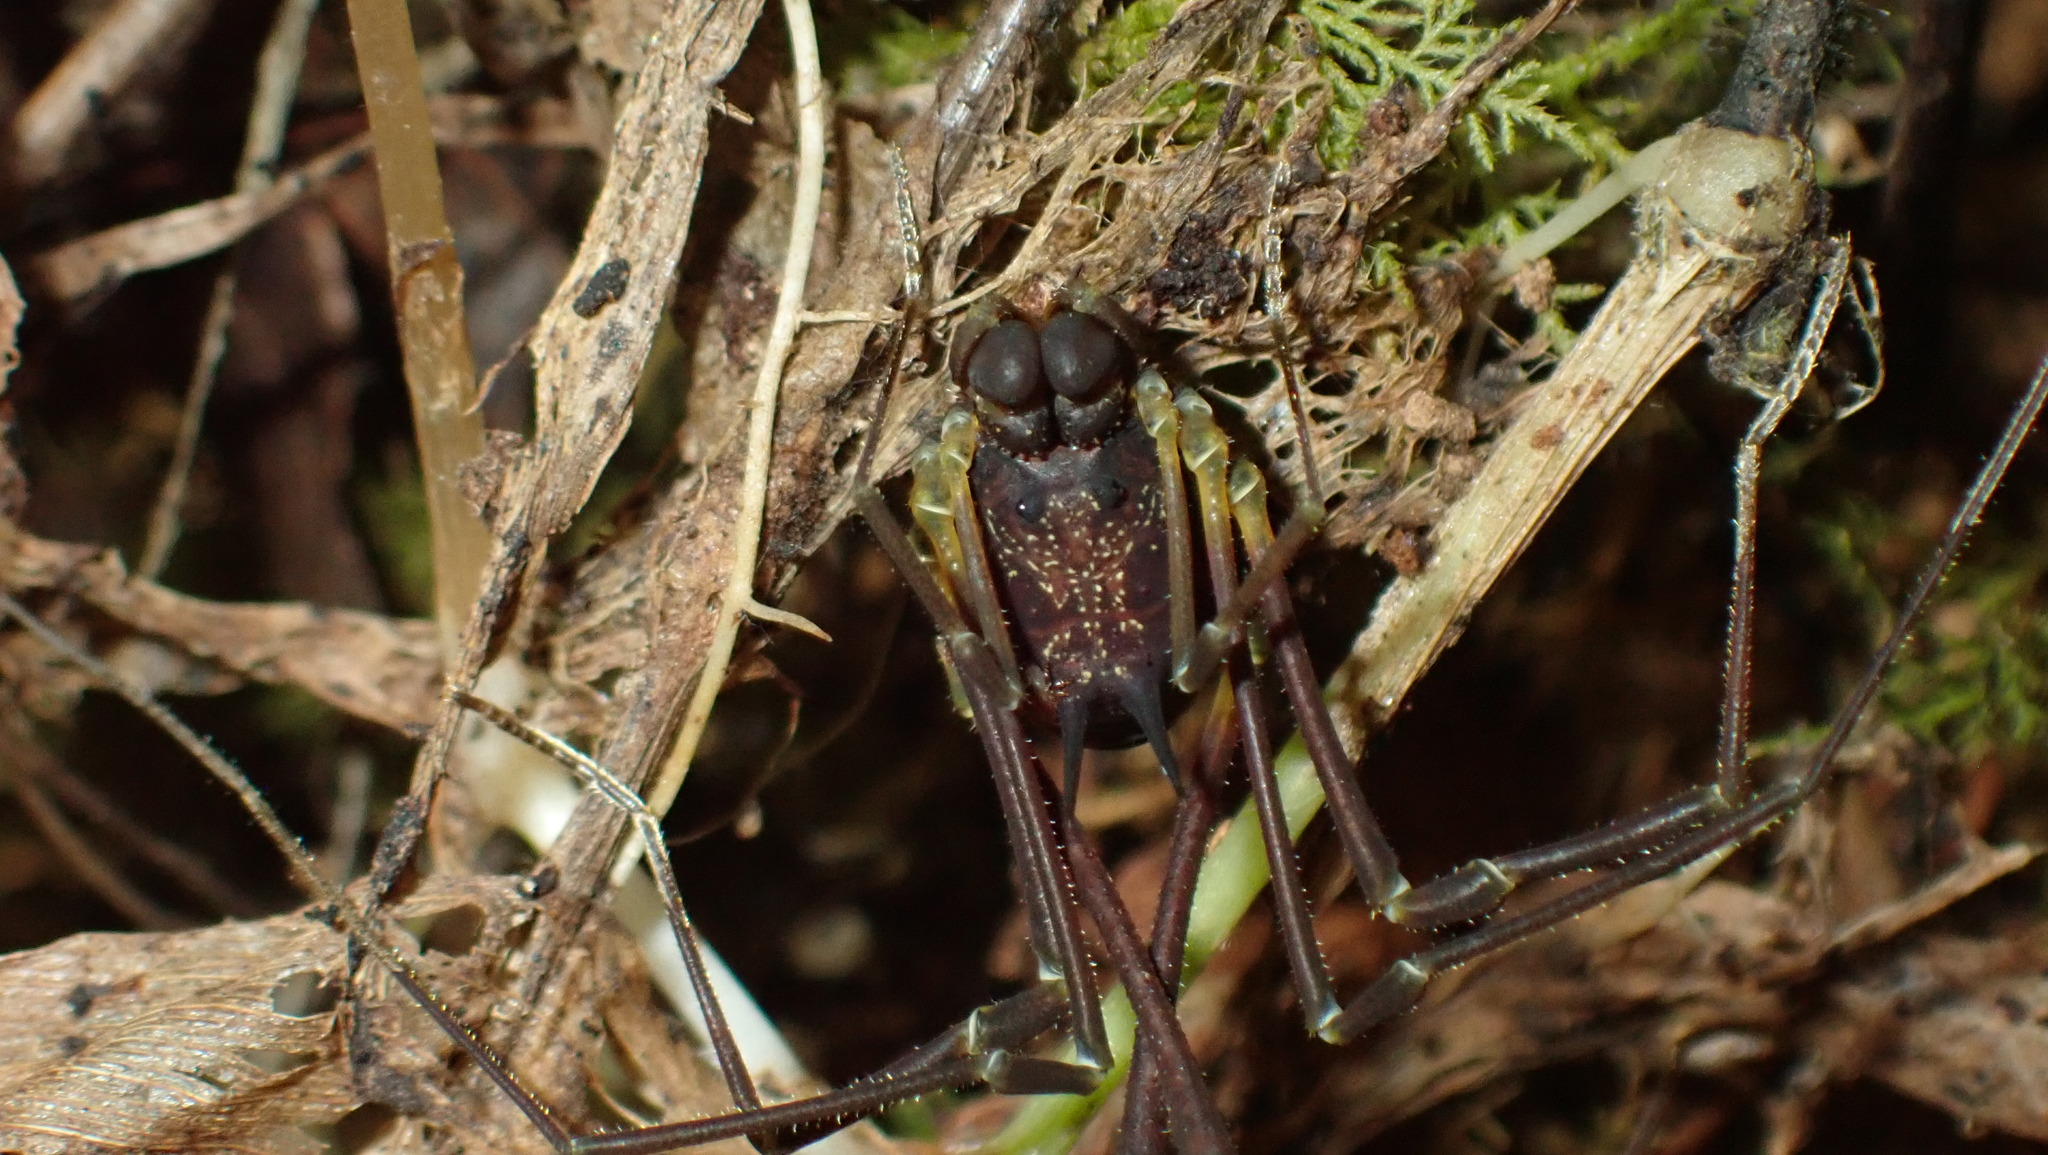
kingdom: Animalia
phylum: Arthropoda
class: Arachnida
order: Opiliones
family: Cosmetidae
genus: Paecilaema
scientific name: Paecilaema luquillense
